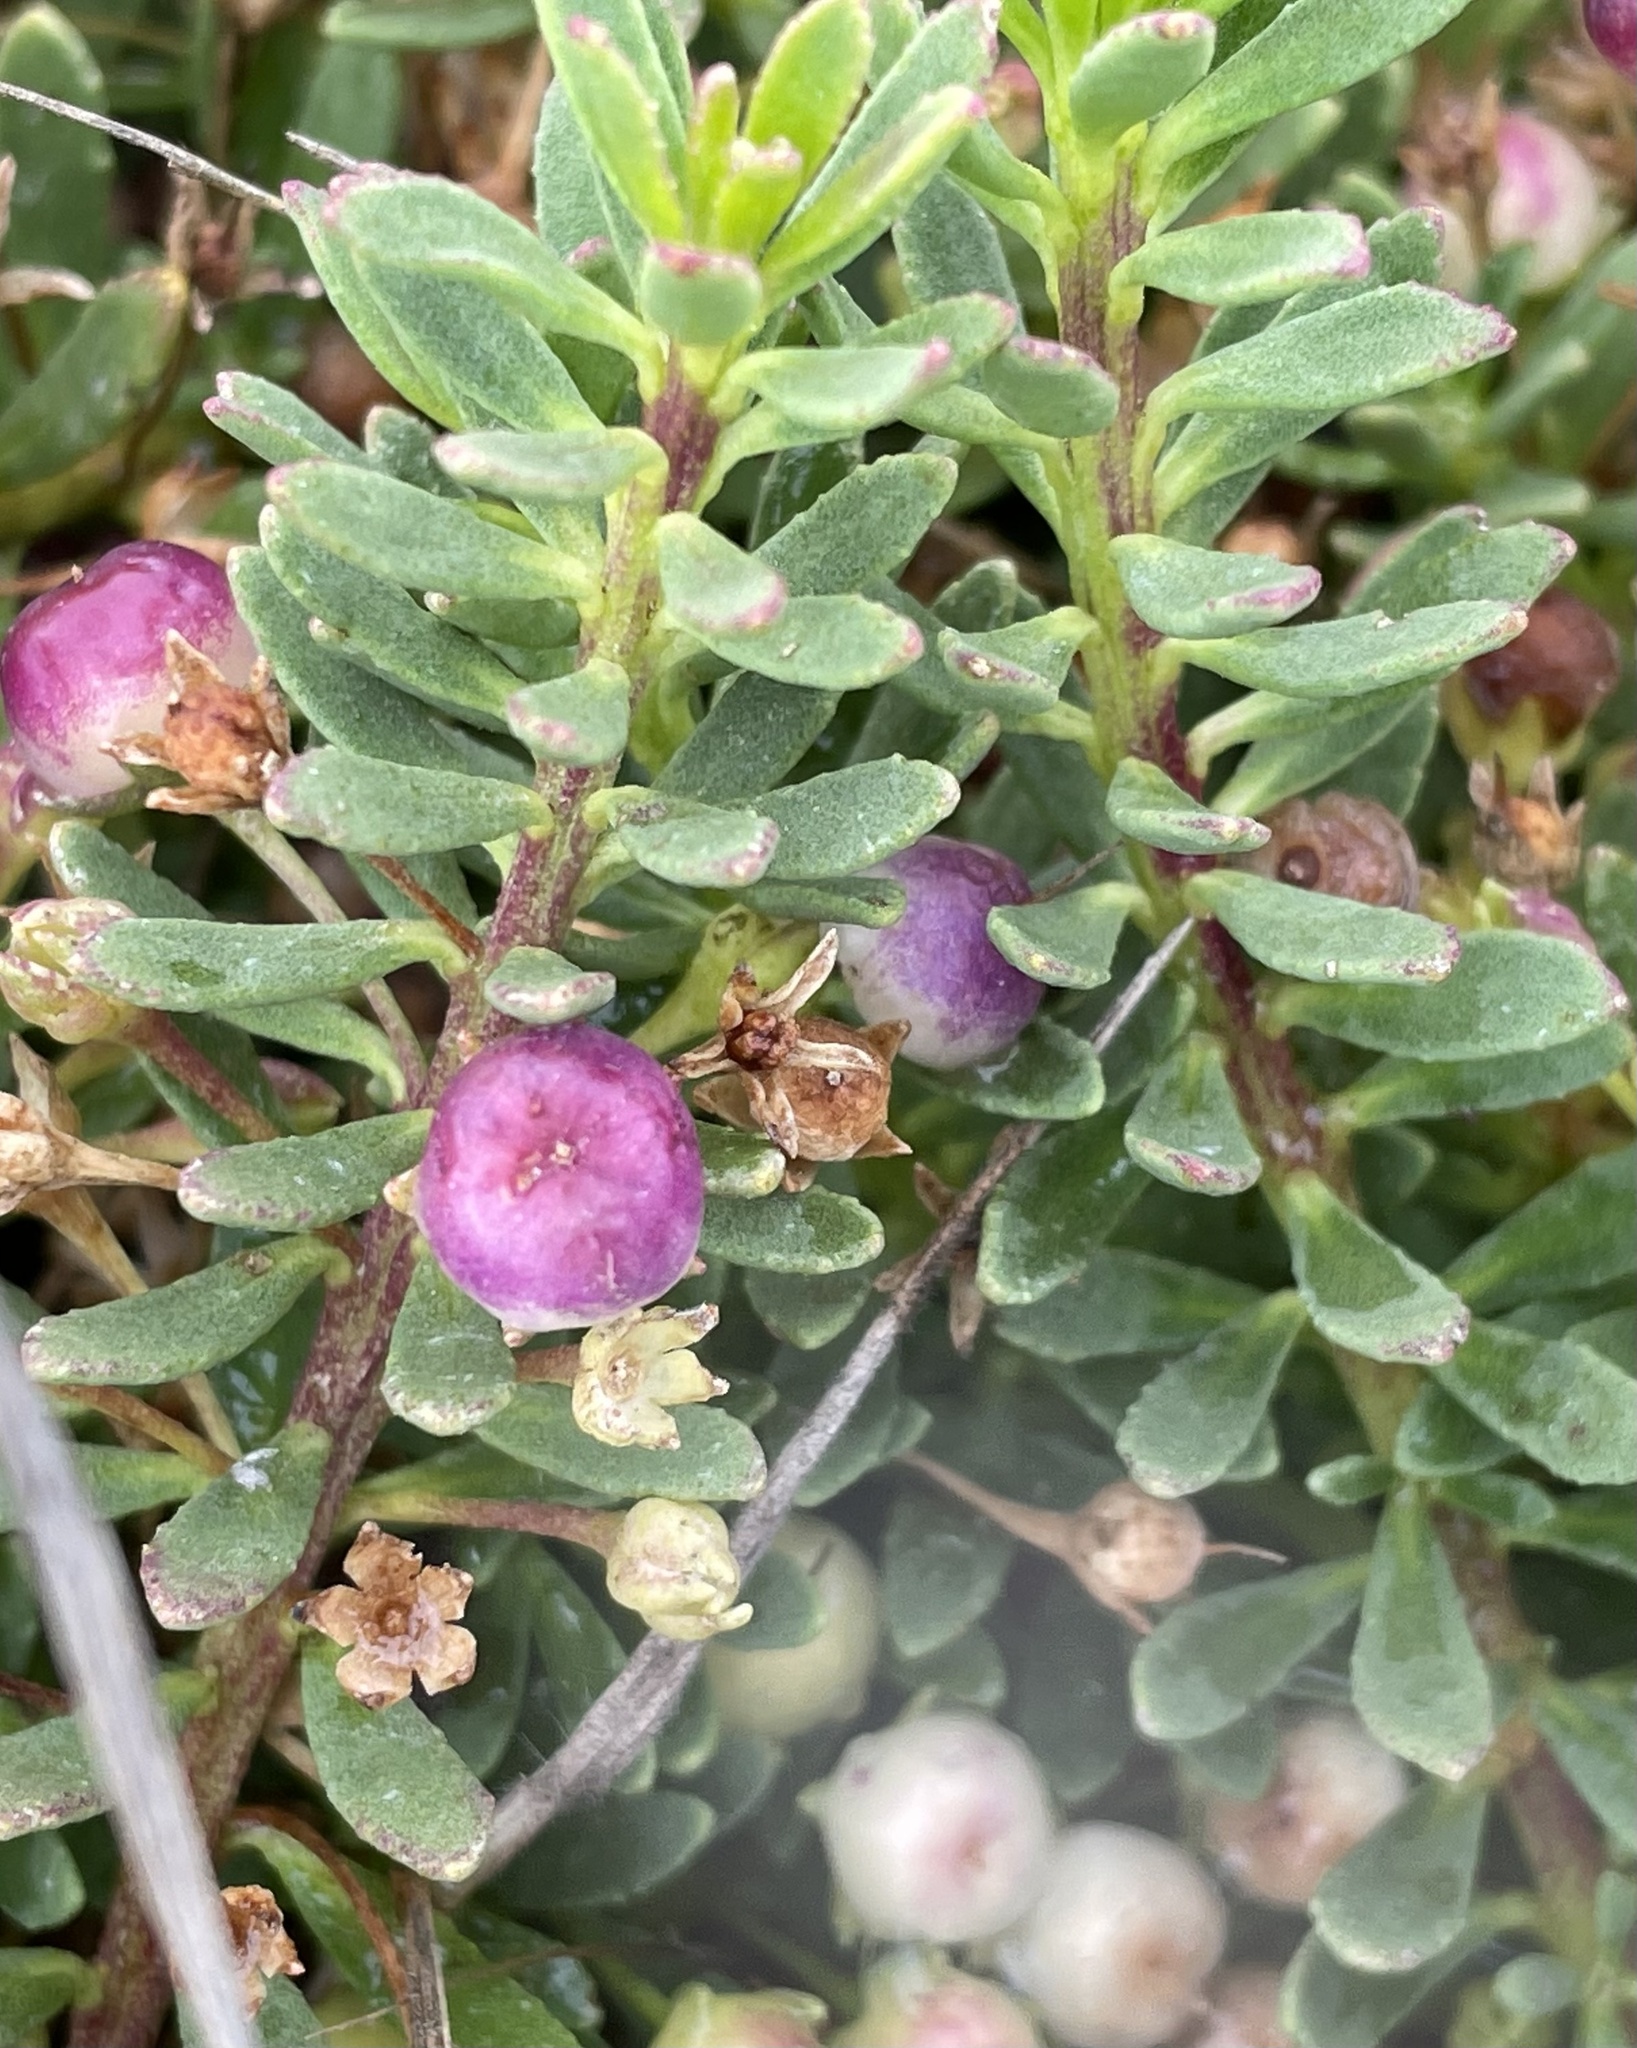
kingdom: Plantae
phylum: Tracheophyta
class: Magnoliopsida
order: Lamiales
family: Scrophulariaceae
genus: Myoporum
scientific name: Myoporum parvifolium
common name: Dwarf native-myrtle
